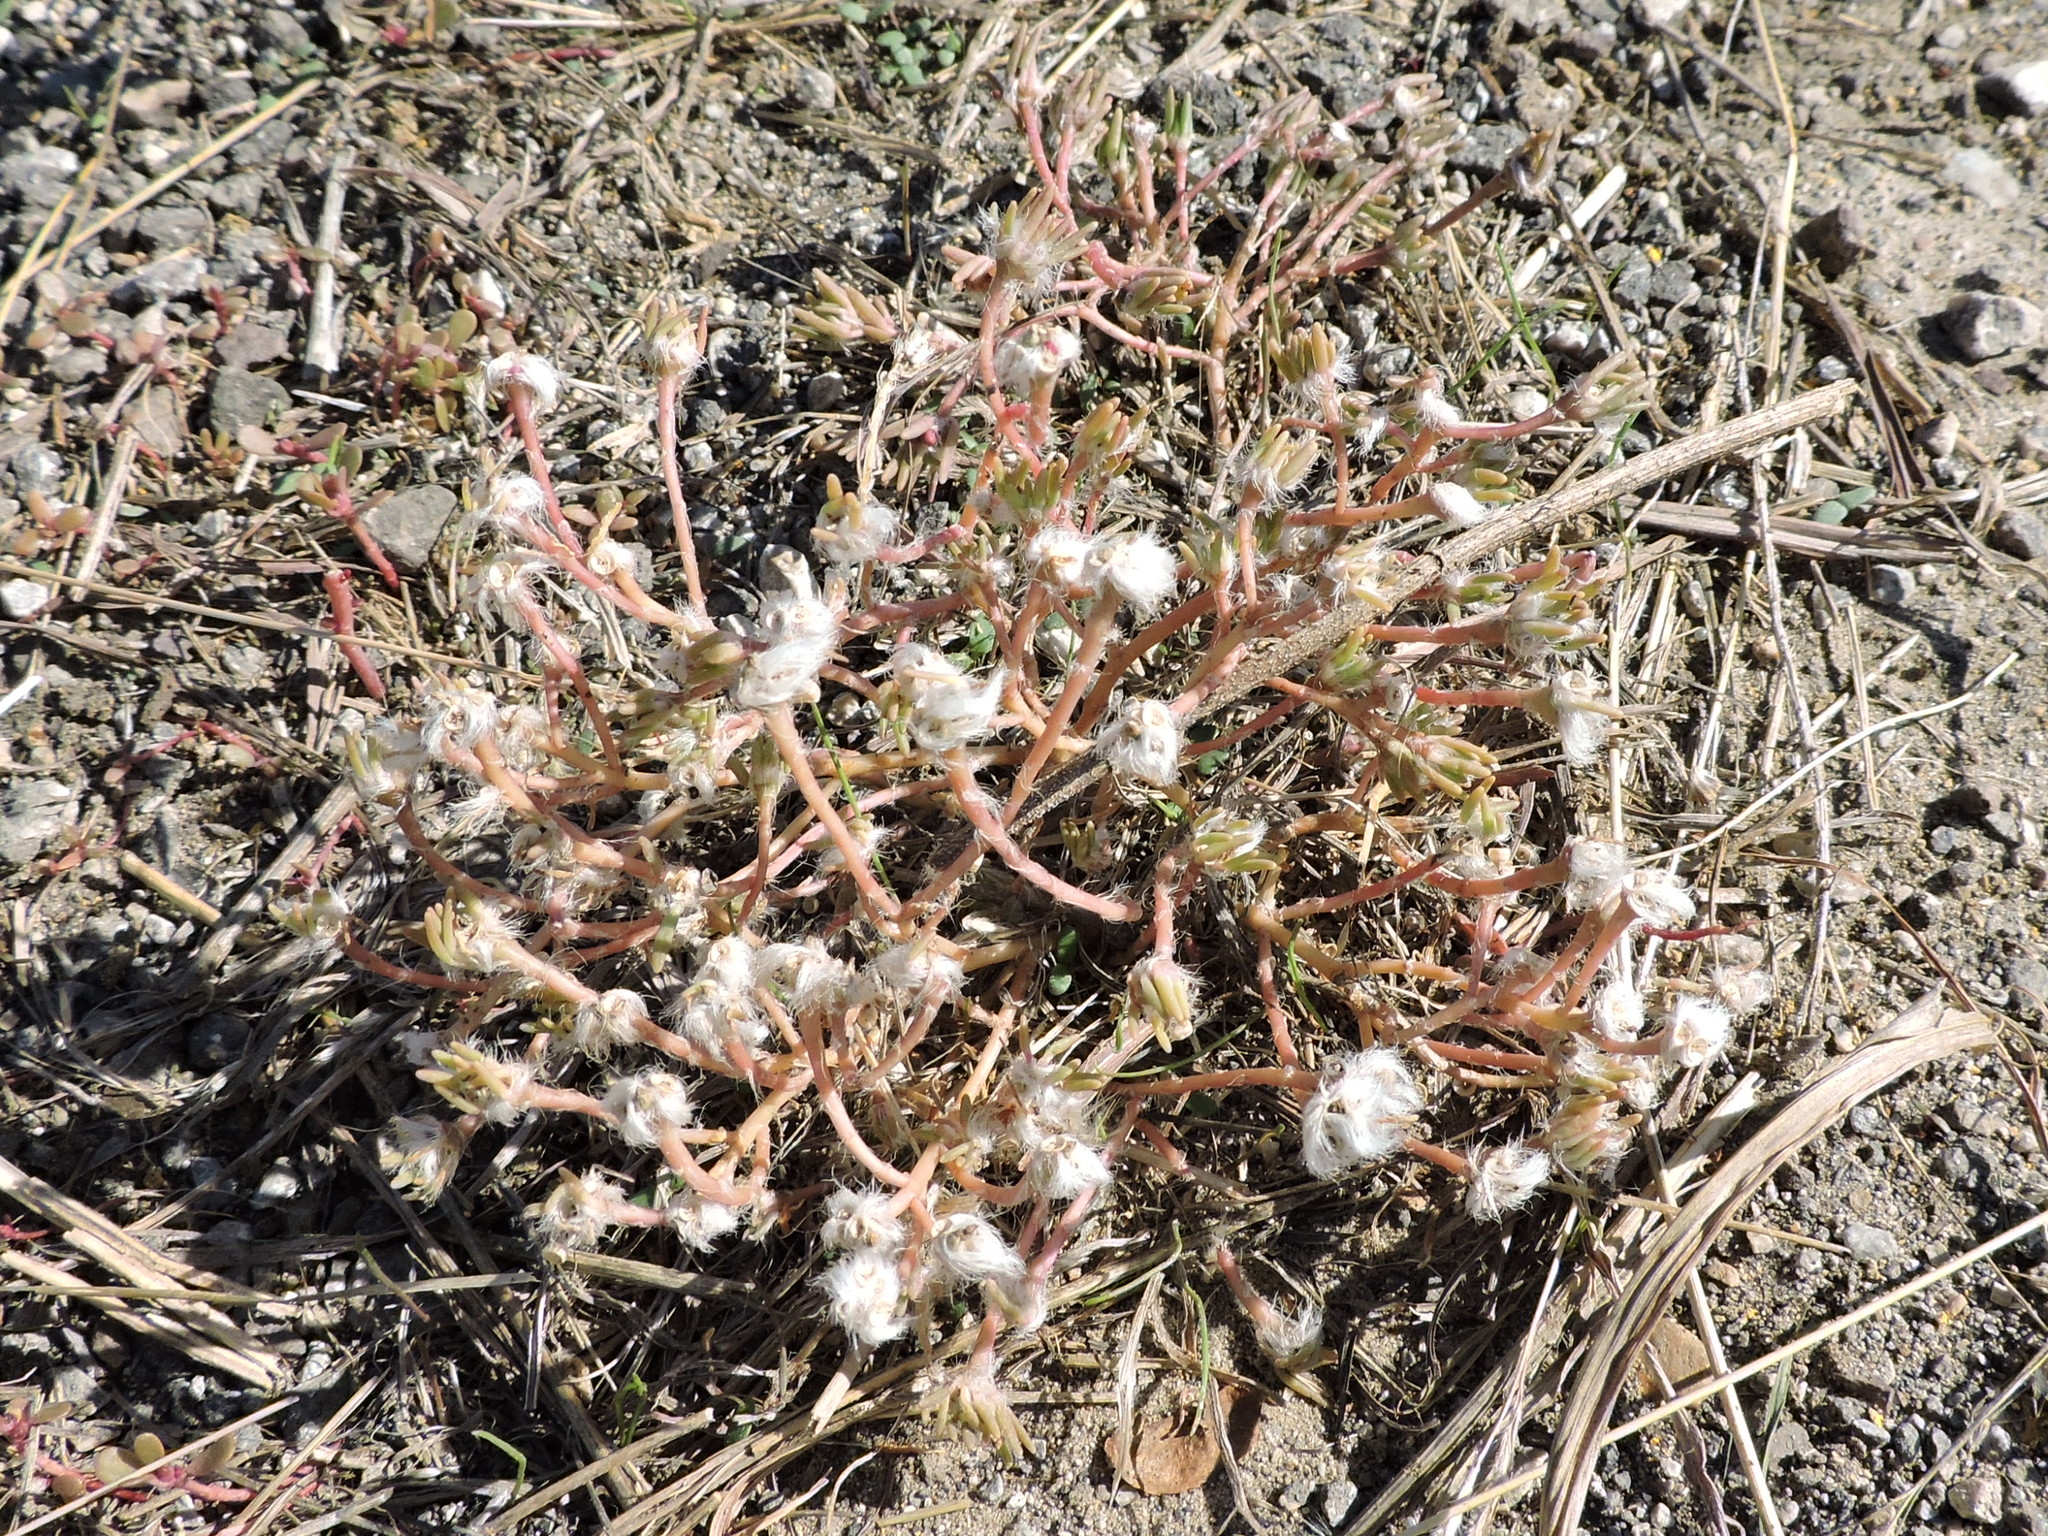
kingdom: Plantae
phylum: Tracheophyta
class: Magnoliopsida
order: Caryophyllales
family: Portulacaceae
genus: Portulaca
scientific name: Portulaca pilosa
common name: Kiss me quick
